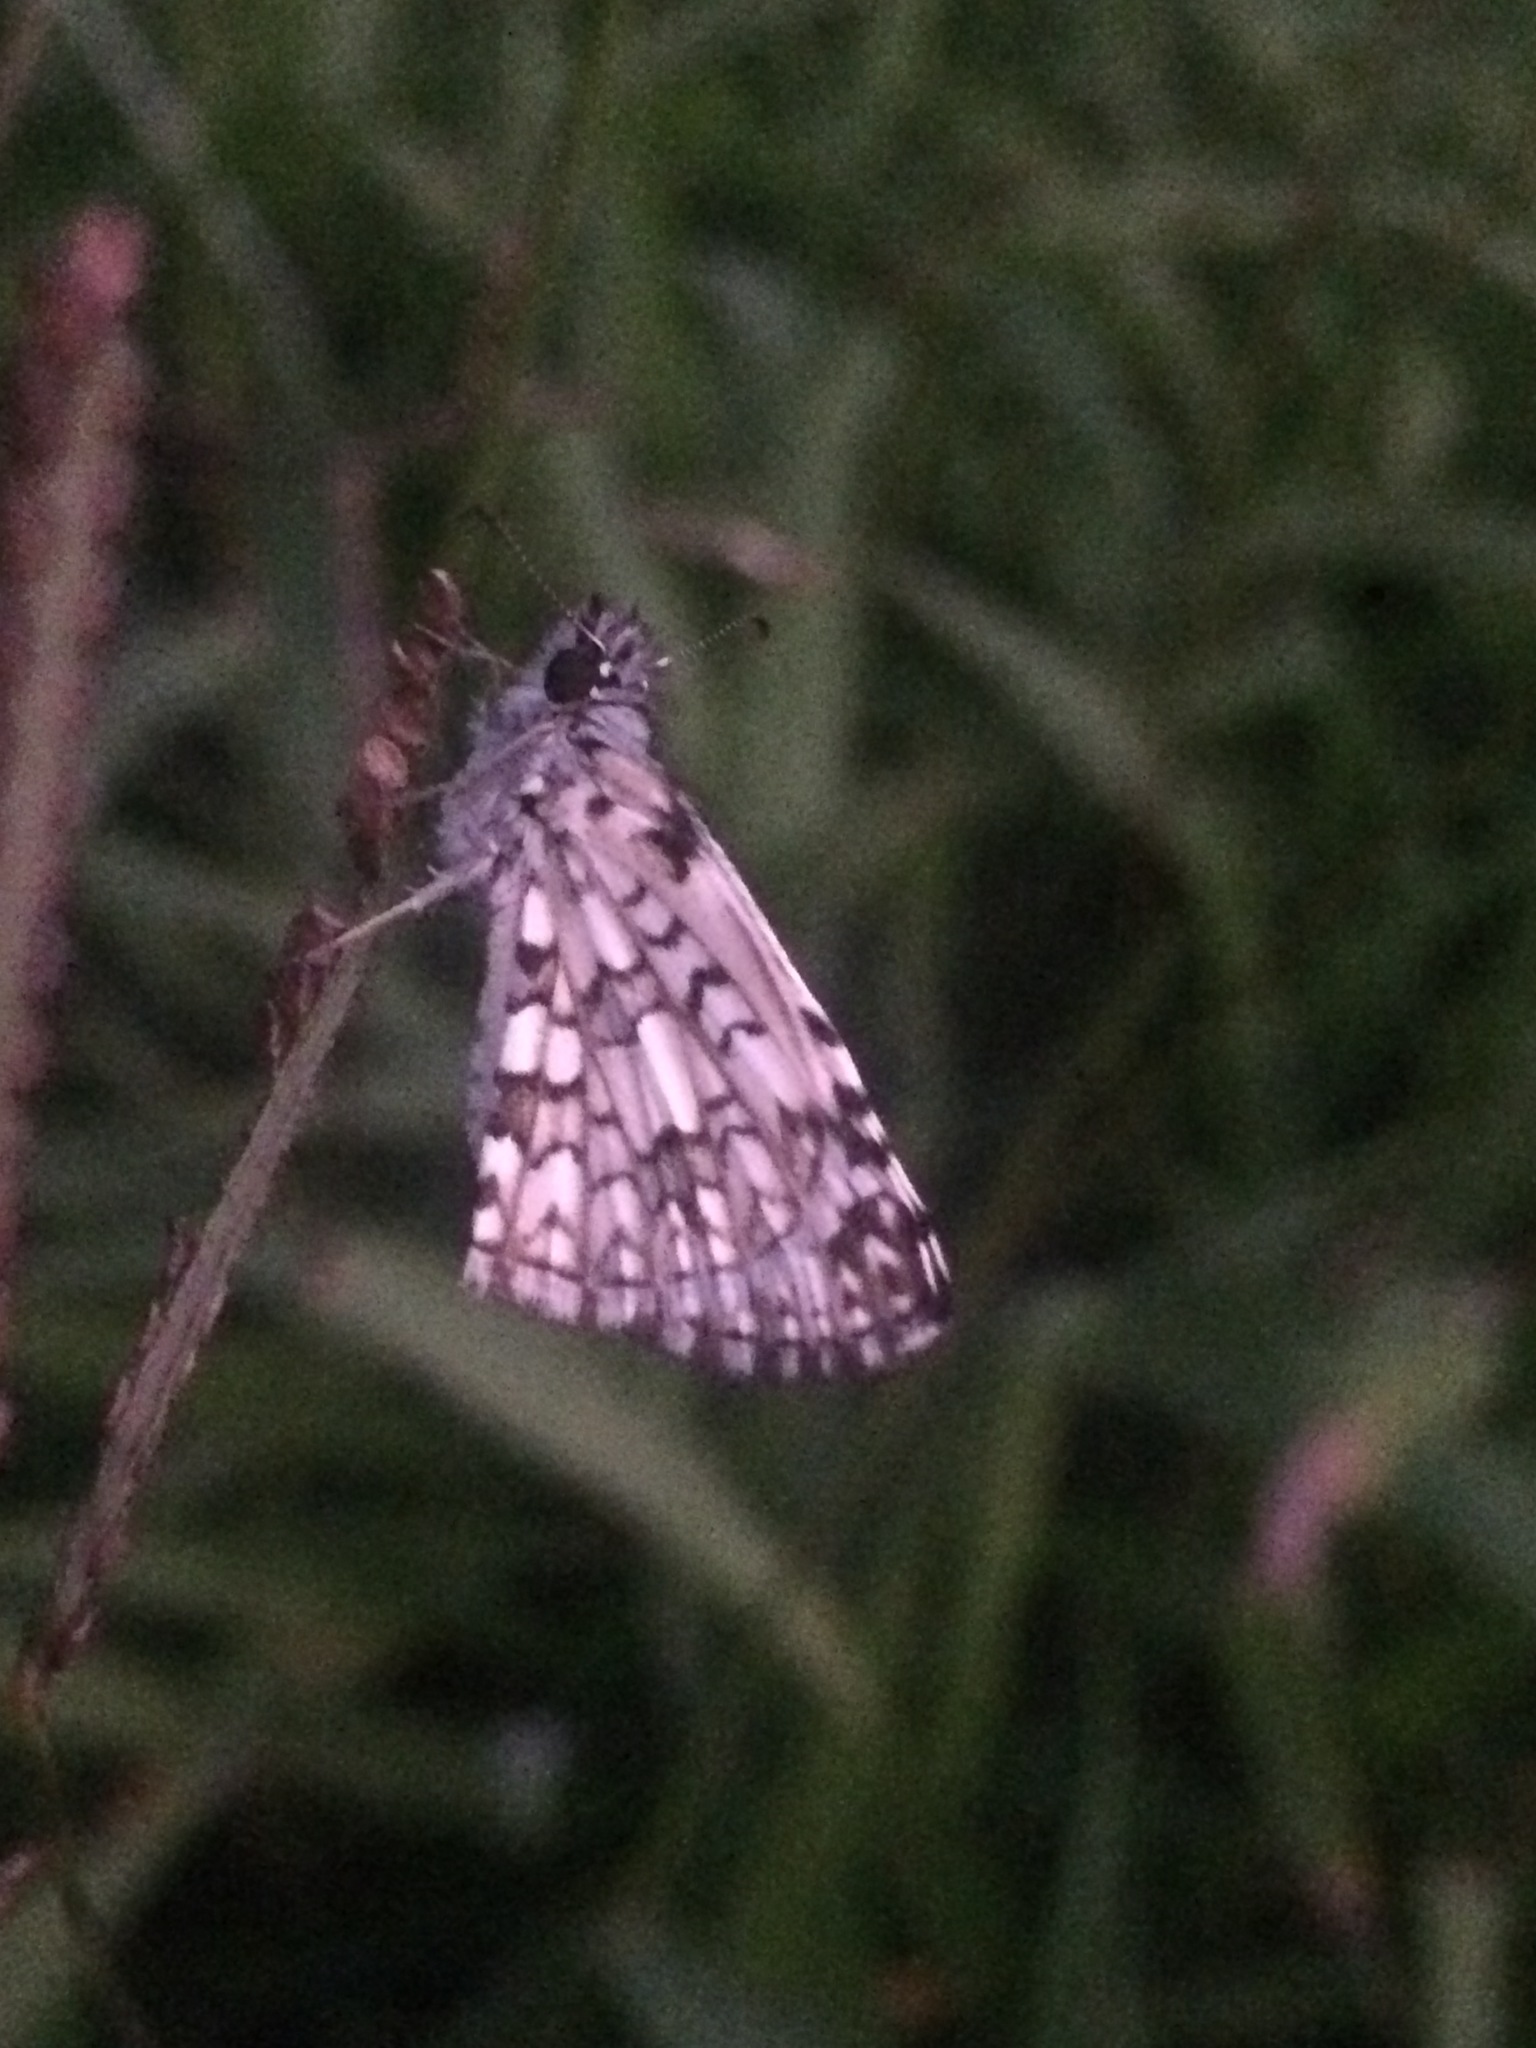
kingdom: Animalia
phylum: Arthropoda
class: Insecta
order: Lepidoptera
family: Hesperiidae
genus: Pyrgus
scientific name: Pyrgus oileus
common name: Tropical checkered-skipper
